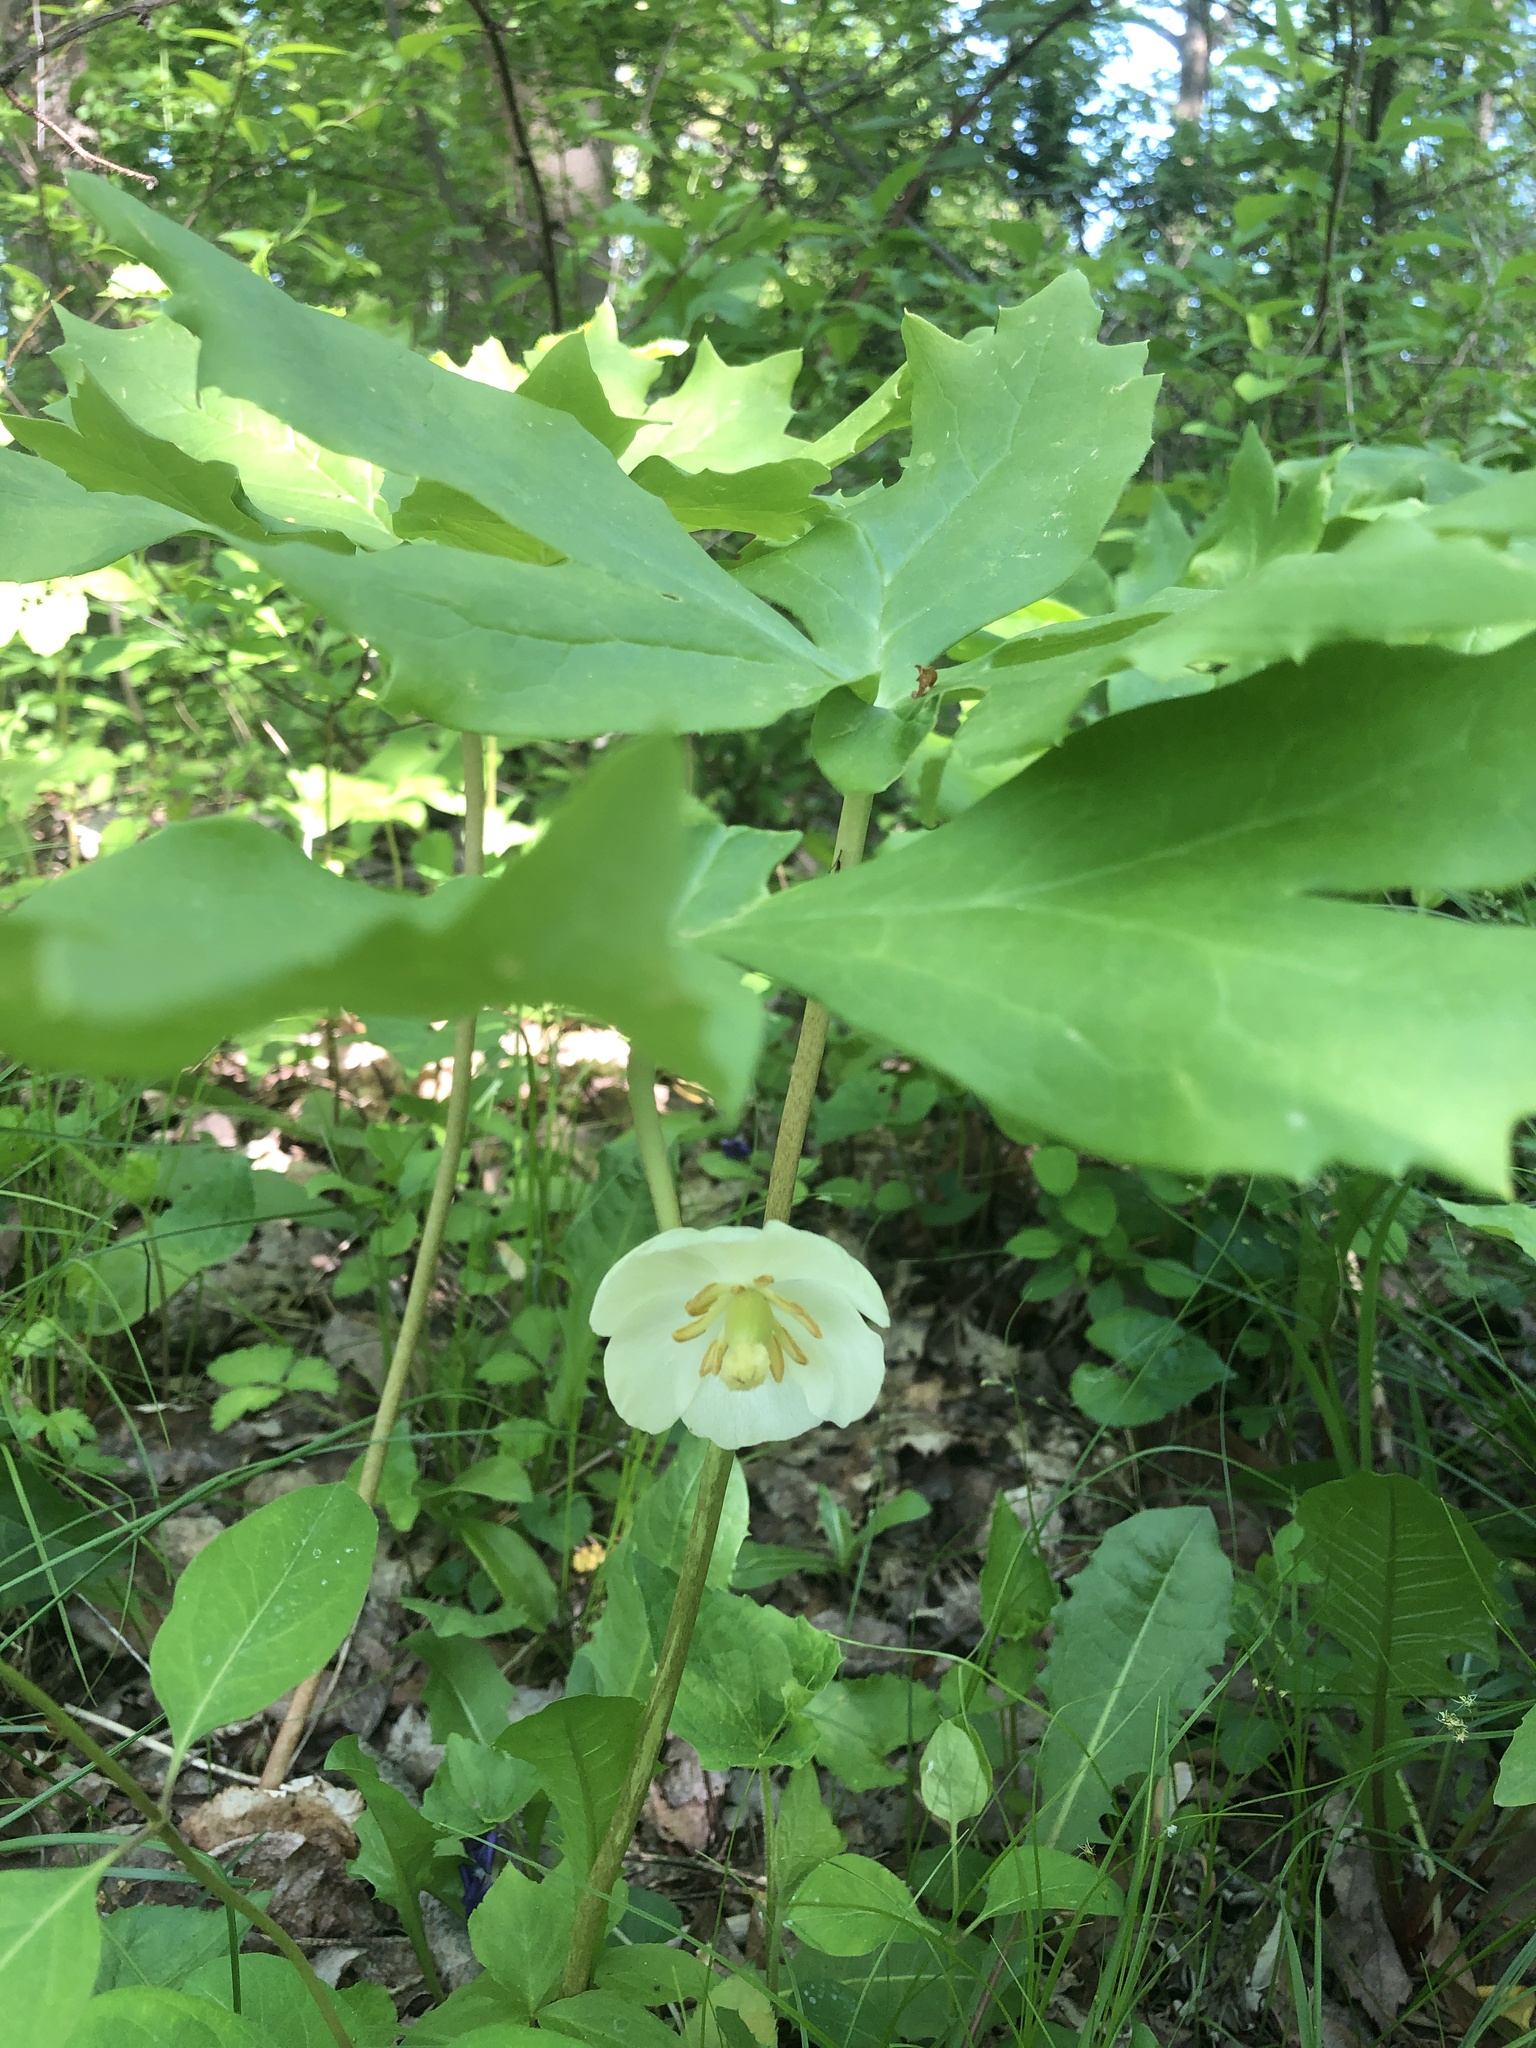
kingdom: Plantae
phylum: Tracheophyta
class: Magnoliopsida
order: Ranunculales
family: Berberidaceae
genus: Podophyllum
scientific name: Podophyllum peltatum
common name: Wild mandrake
